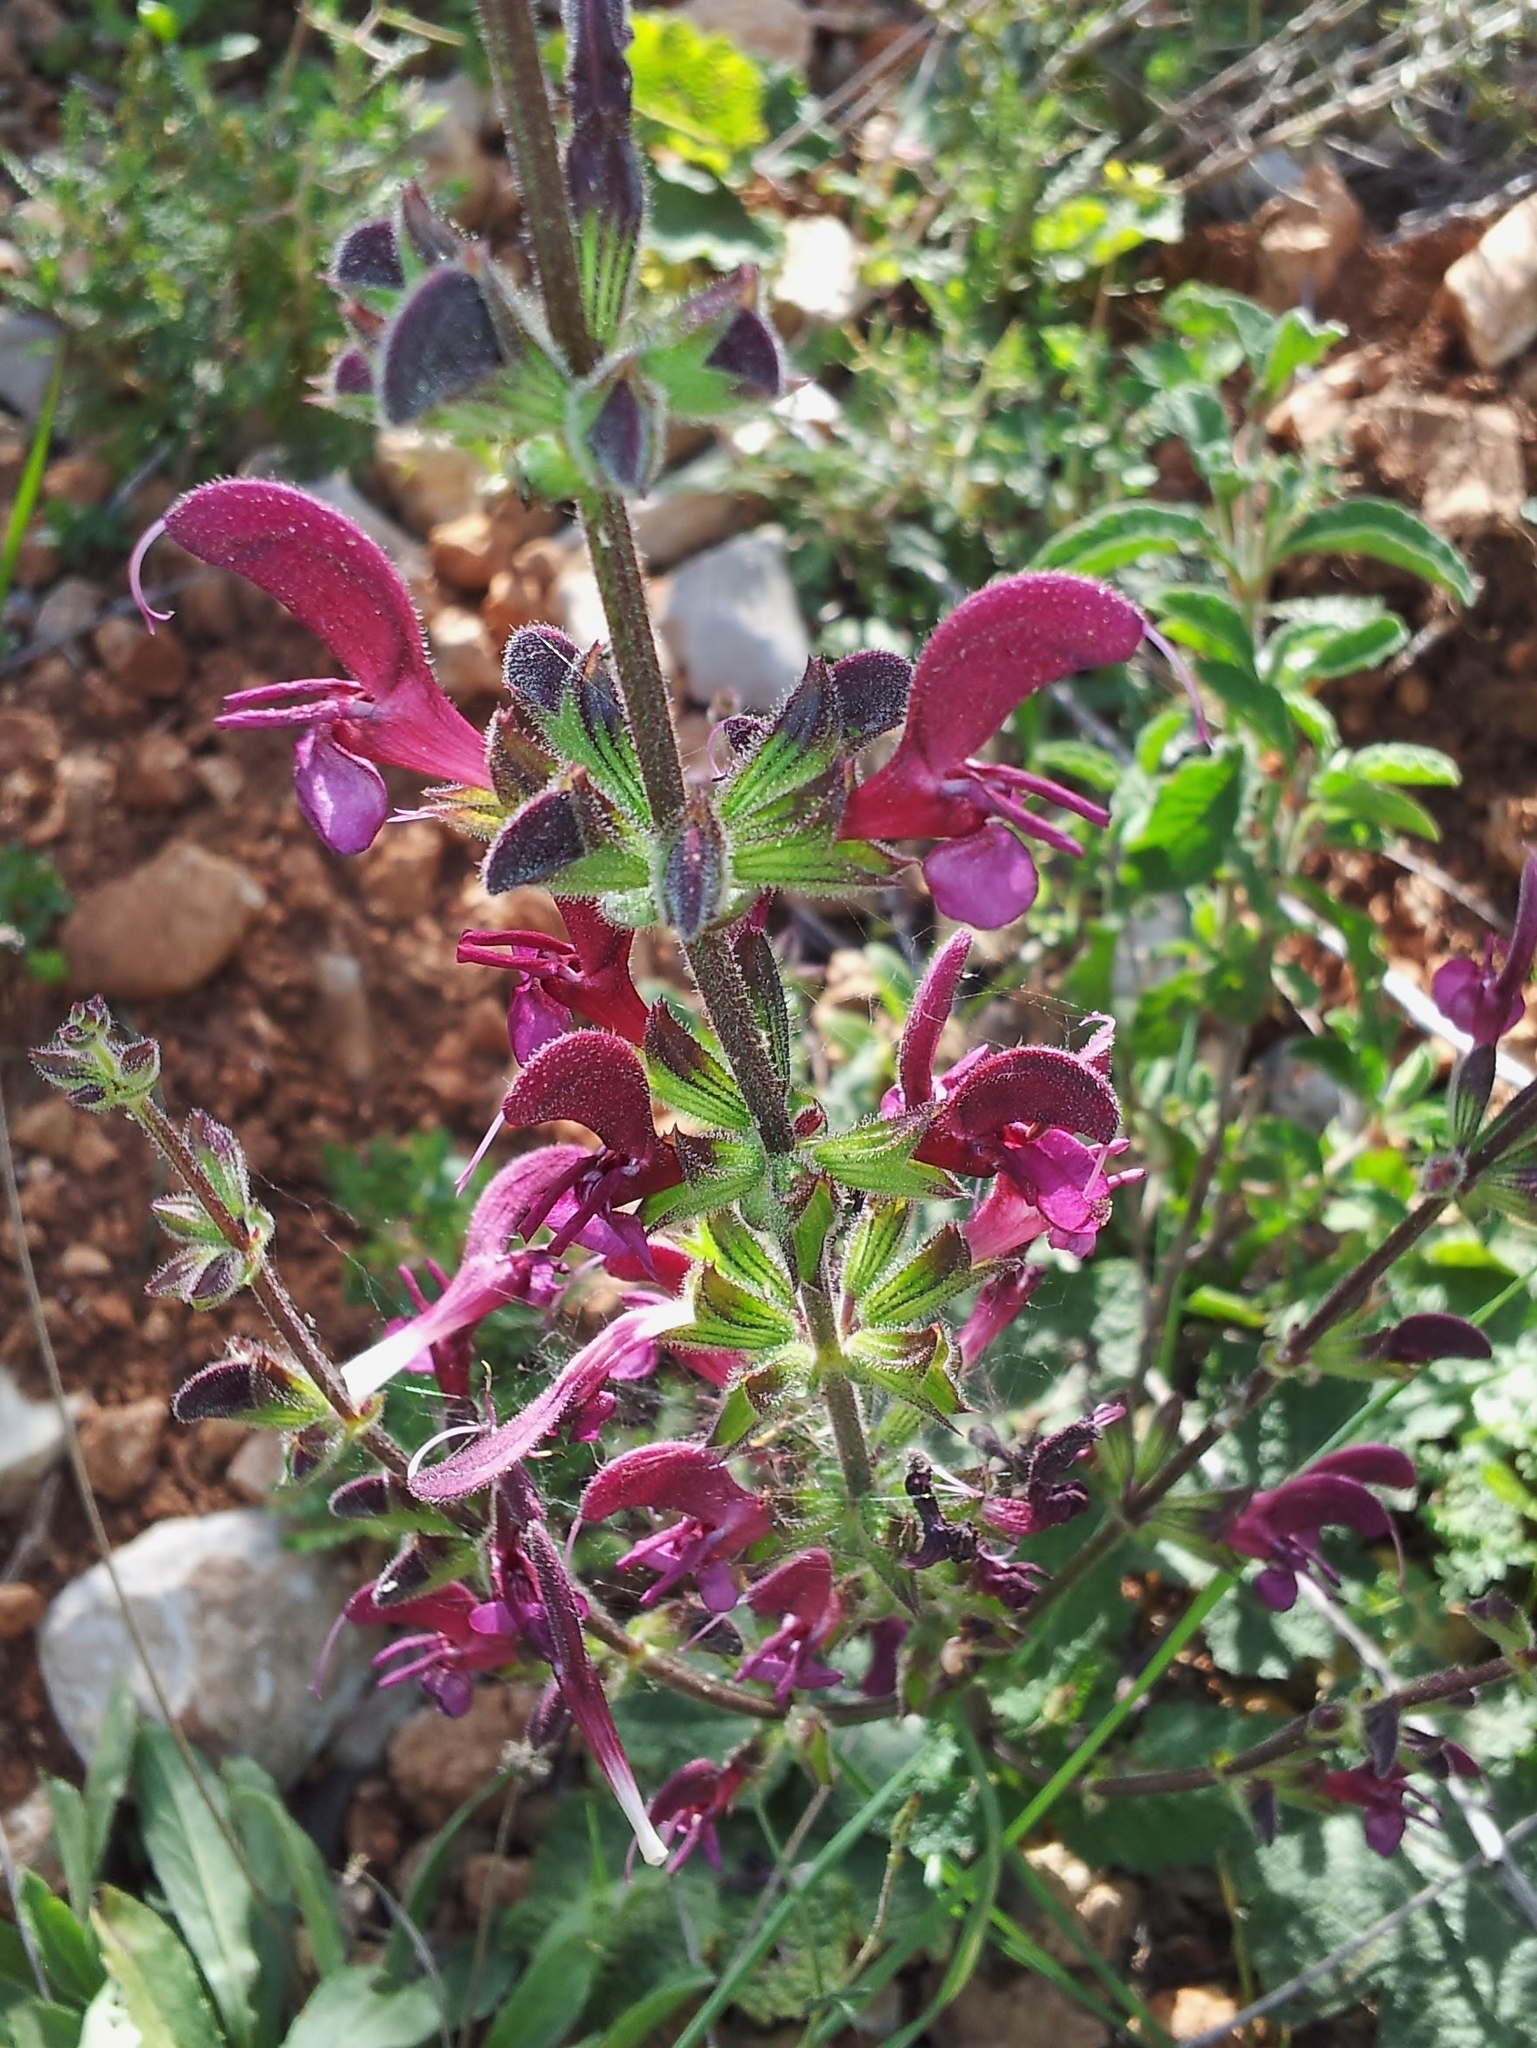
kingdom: Plantae
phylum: Tracheophyta
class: Magnoliopsida
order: Lamiales
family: Lamiaceae
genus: Salvia
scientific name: Salvia hierosolymitana
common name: Jerusalem salvia
